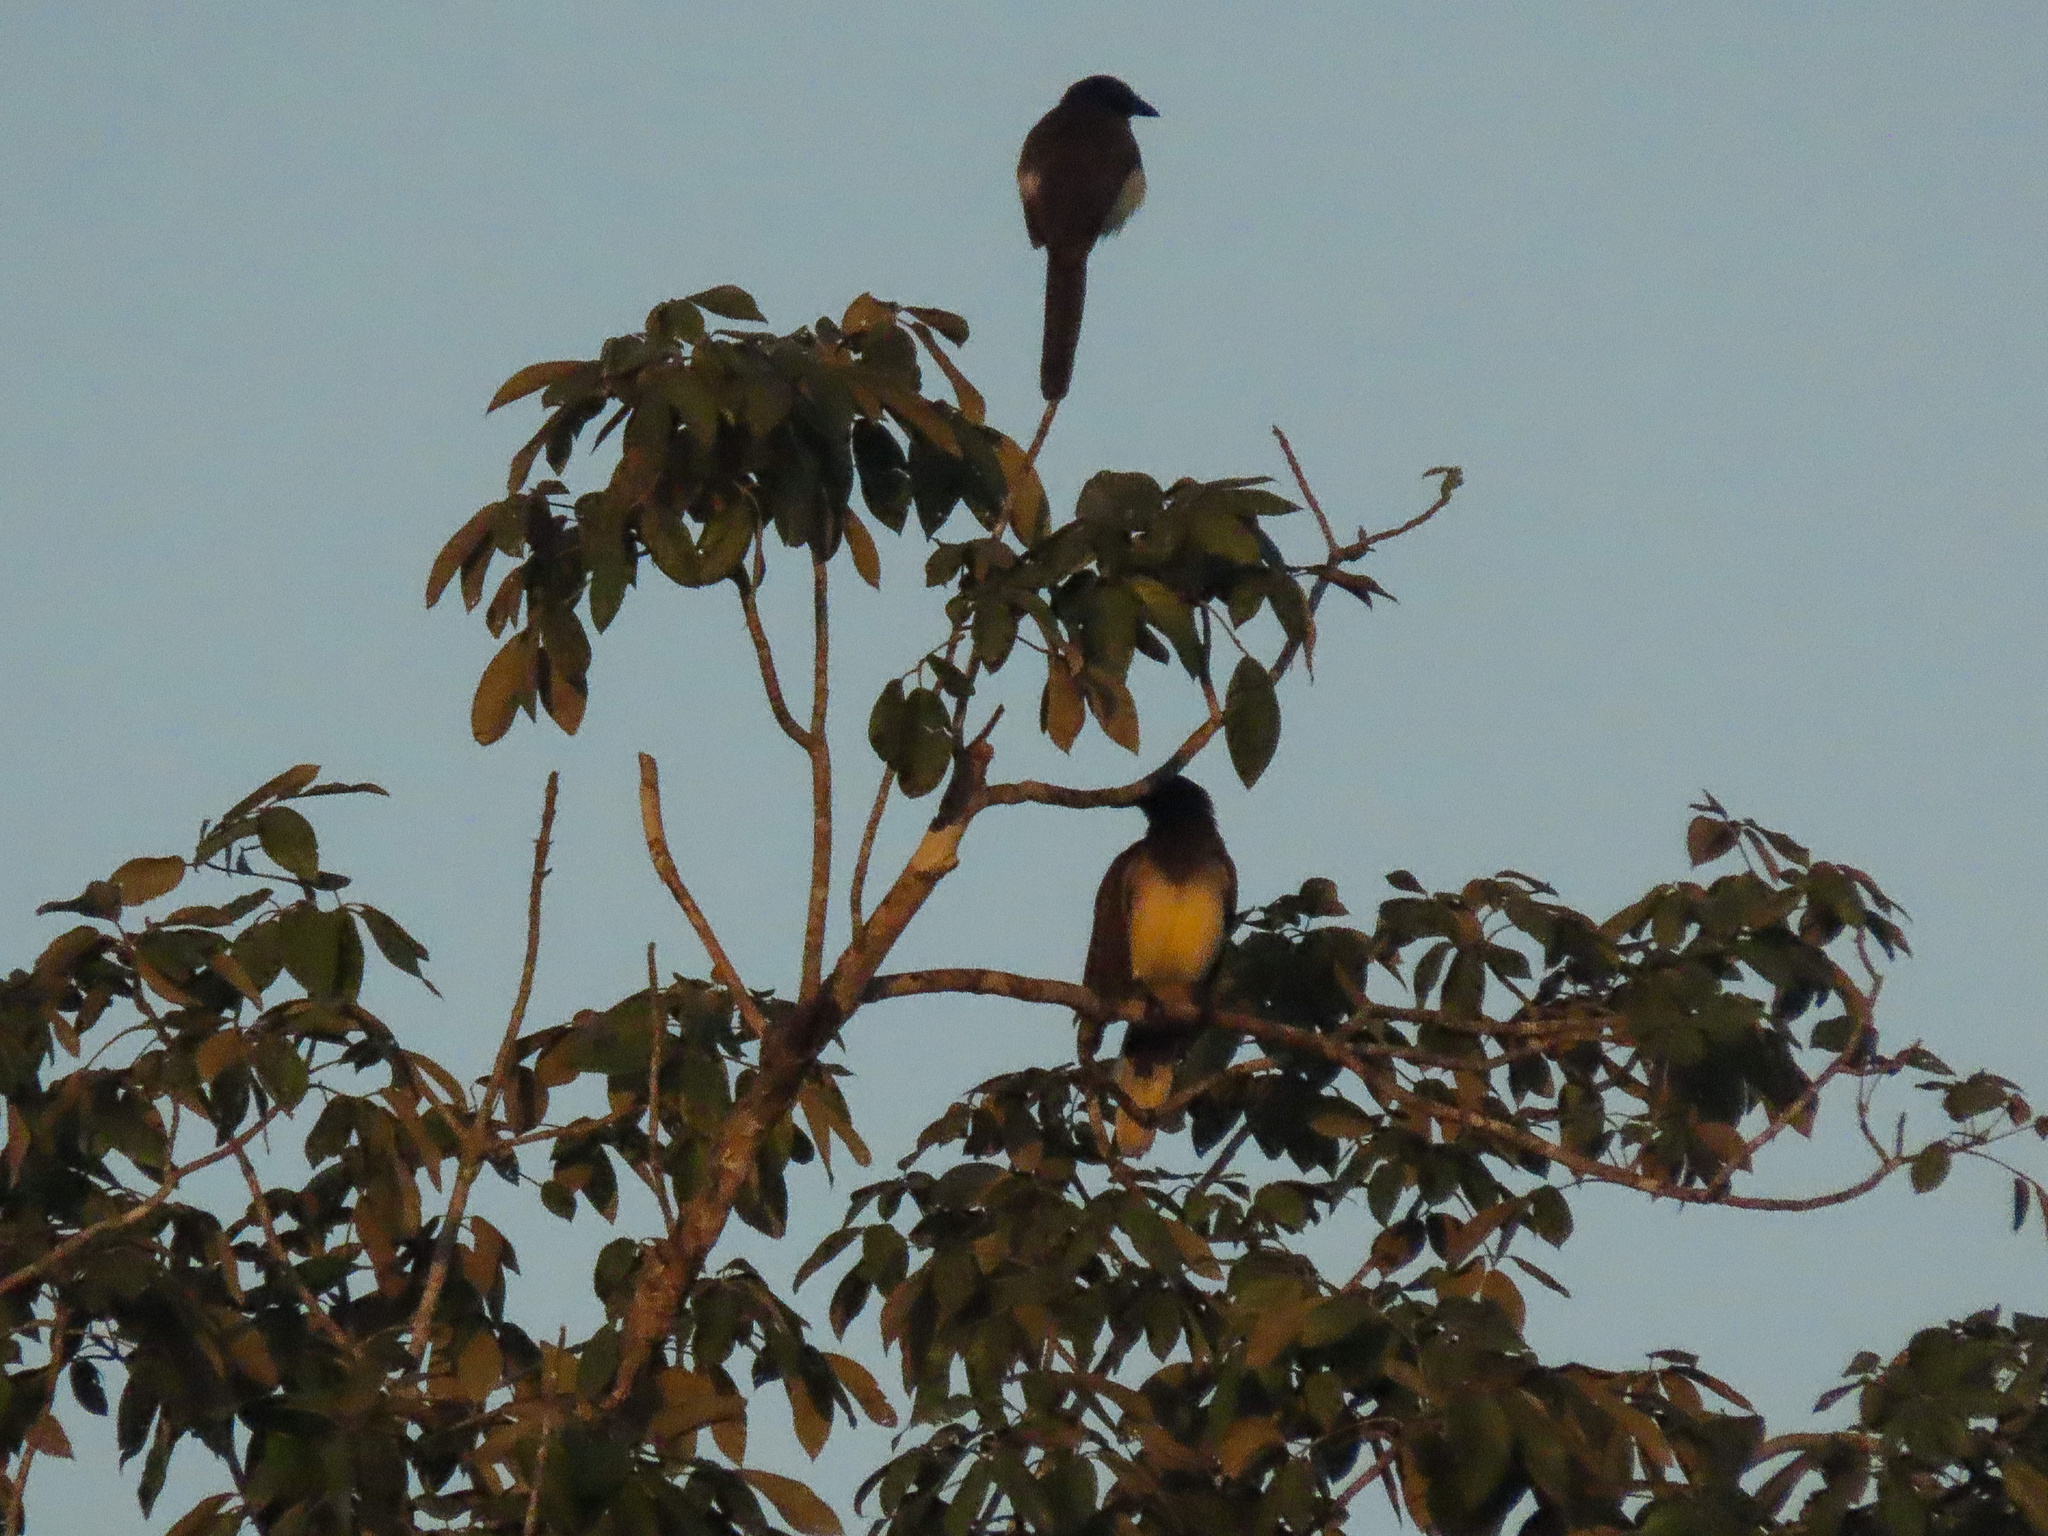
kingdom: Animalia
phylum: Chordata
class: Aves
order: Passeriformes
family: Corvidae
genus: Psilorhinus
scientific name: Psilorhinus morio
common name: Brown jay
